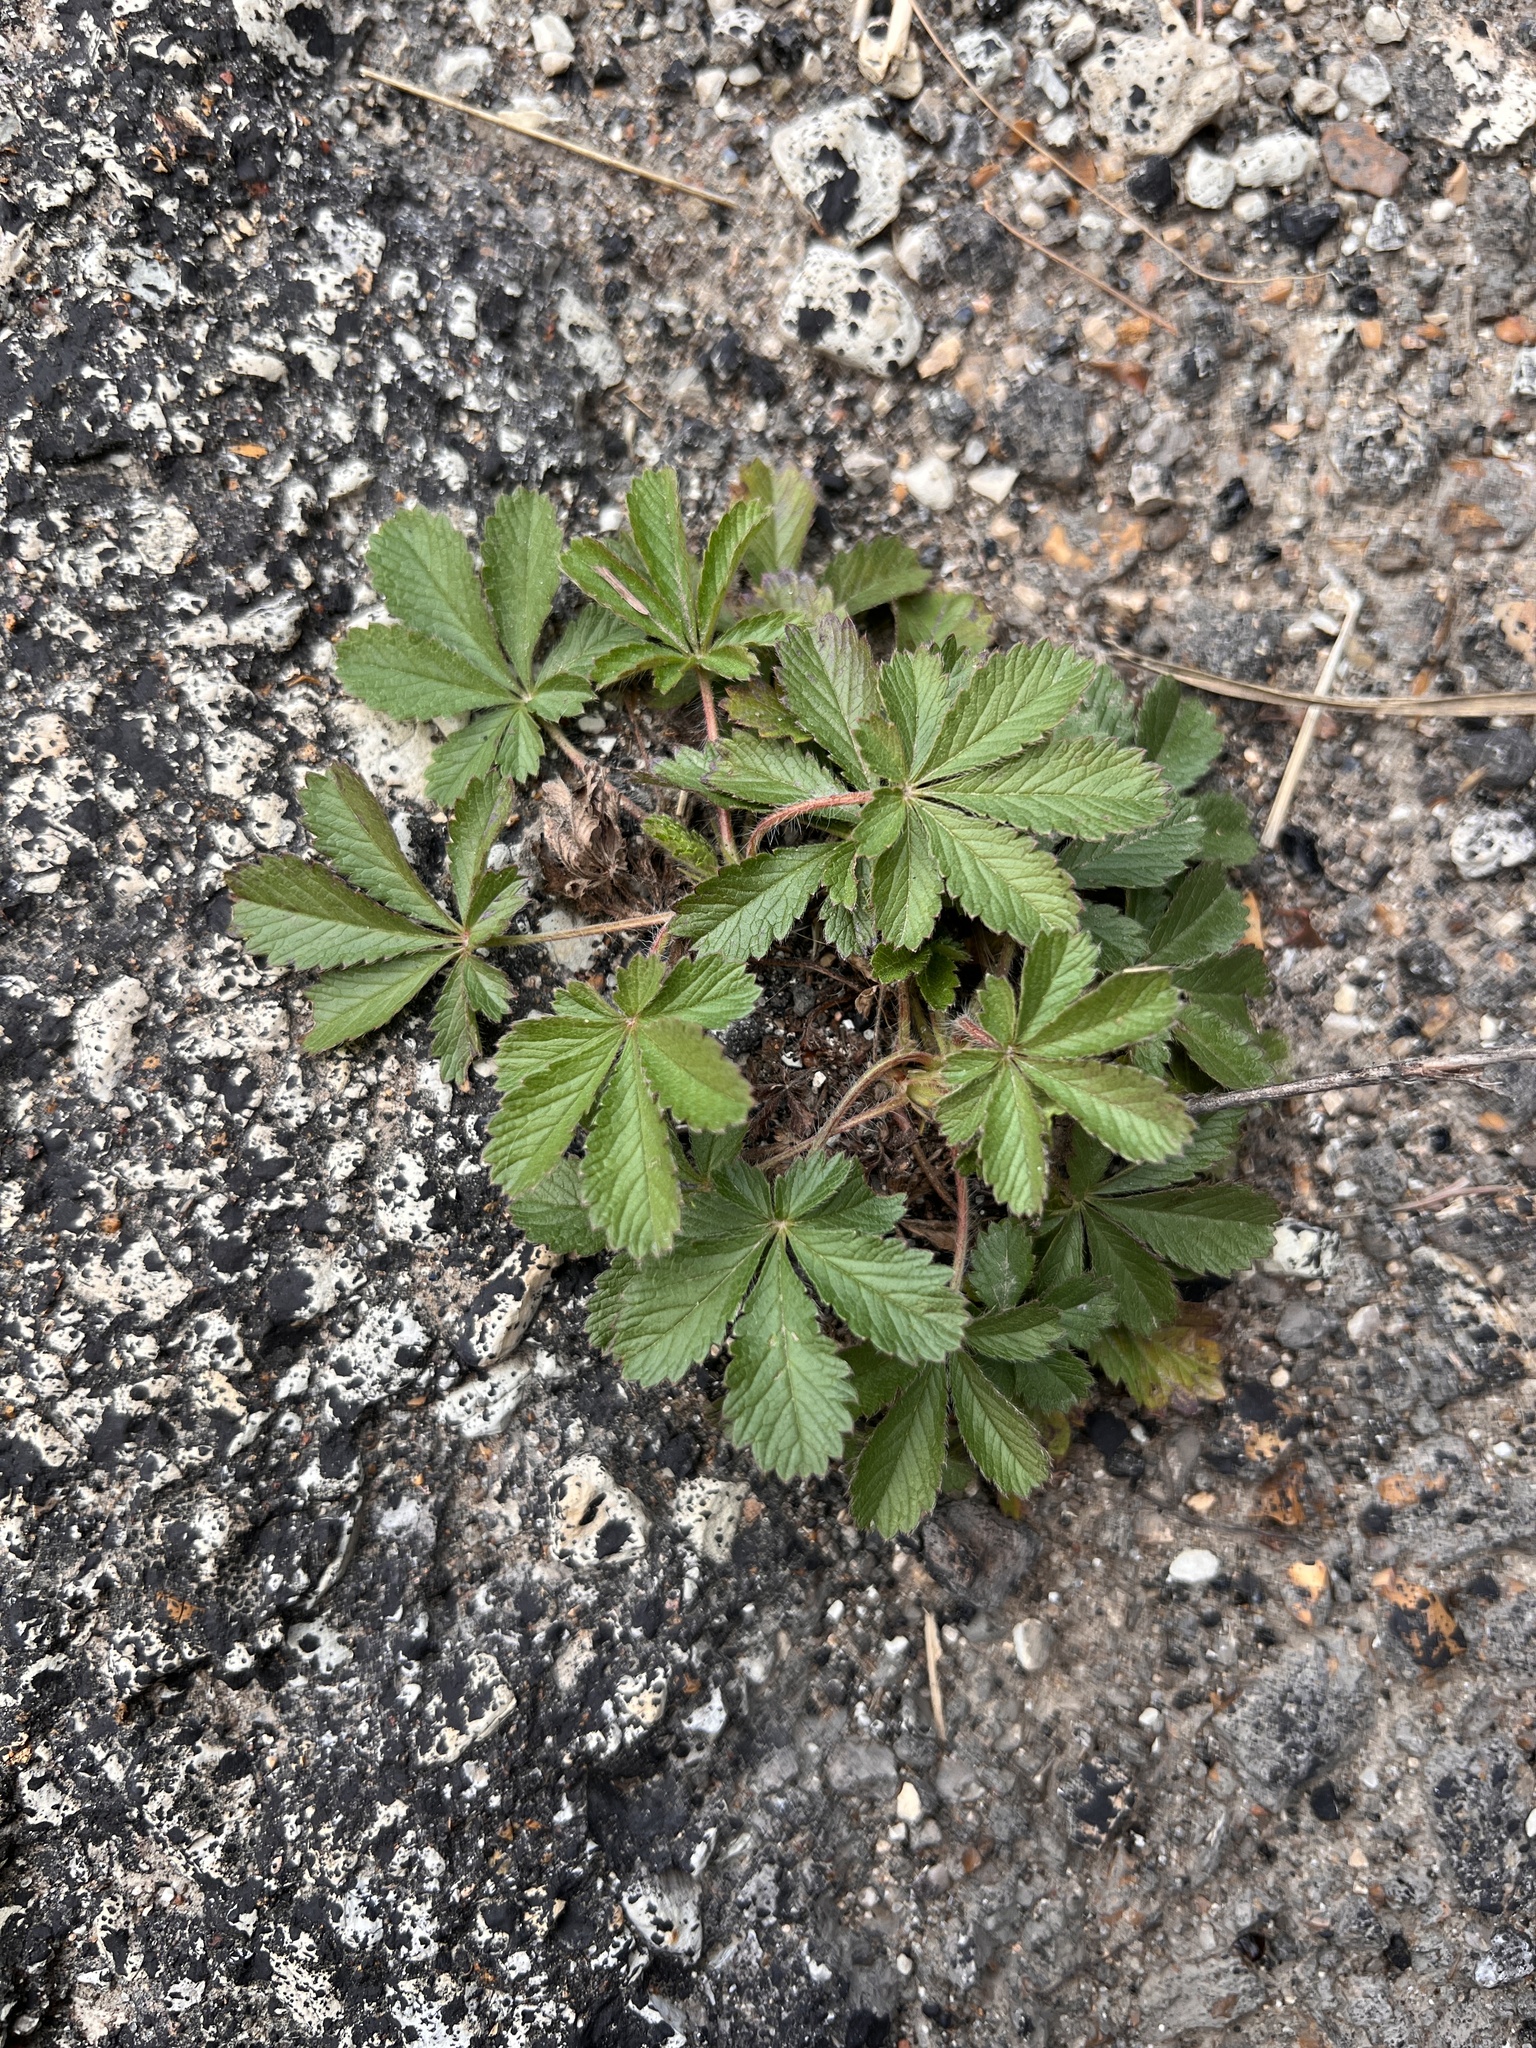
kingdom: Plantae
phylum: Tracheophyta
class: Magnoliopsida
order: Rosales
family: Rosaceae
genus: Potentilla
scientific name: Potentilla recta
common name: Sulphur cinquefoil
